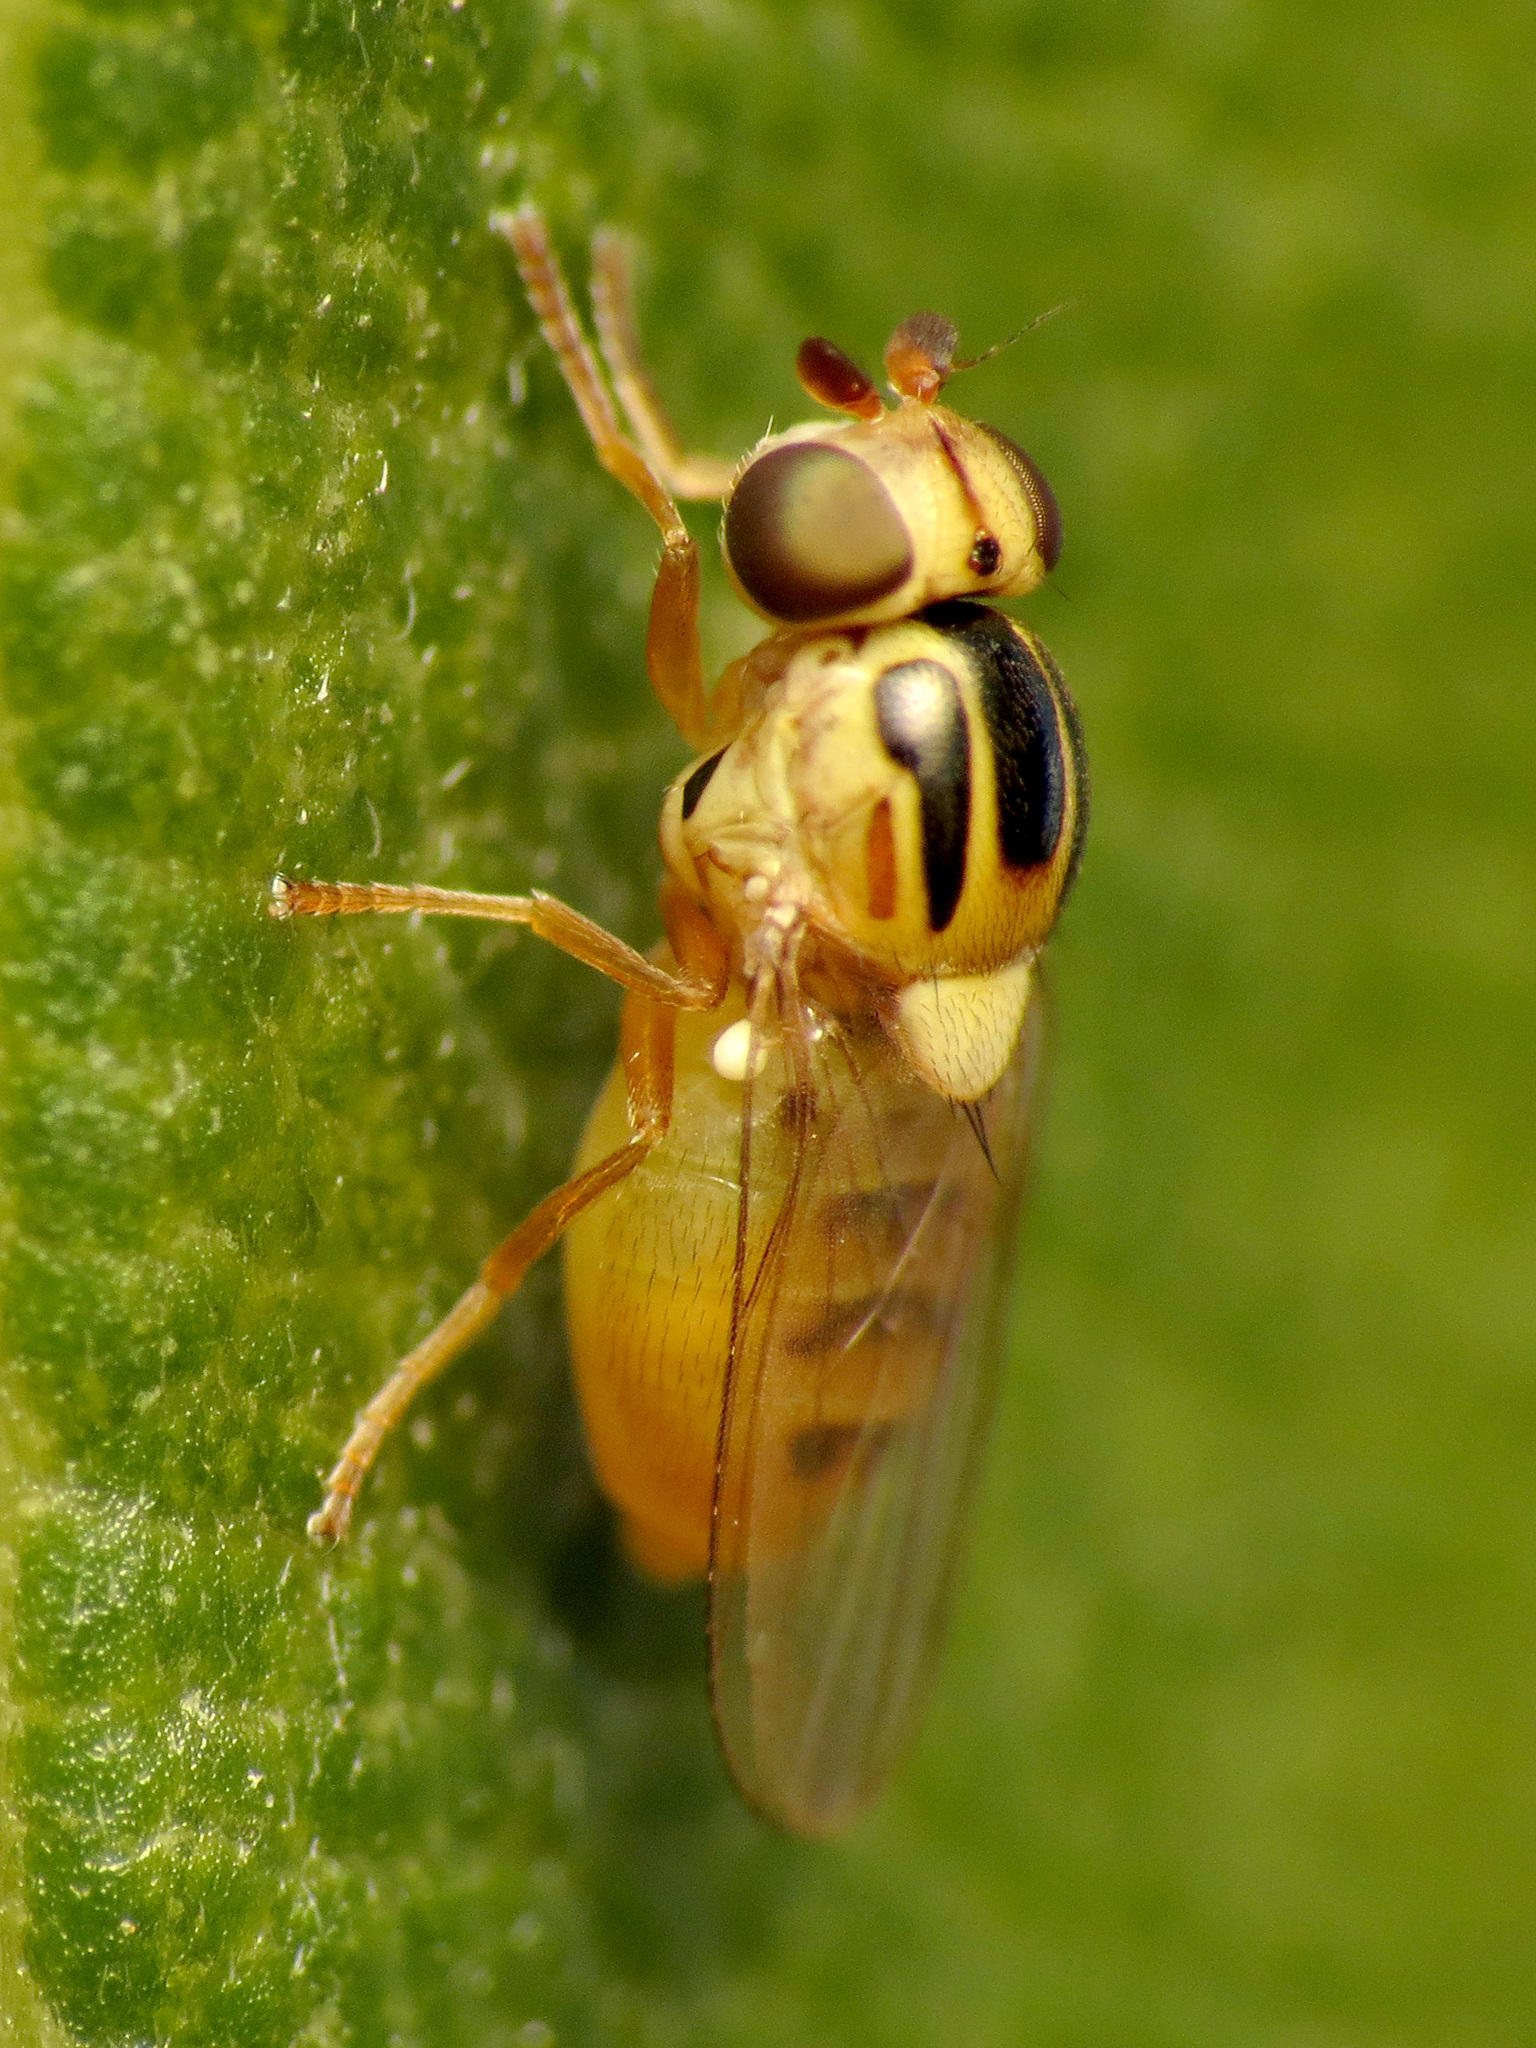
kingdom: Animalia
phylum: Arthropoda
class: Insecta
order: Diptera
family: Chloropidae
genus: Thaumatomyia
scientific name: Thaumatomyia notata
